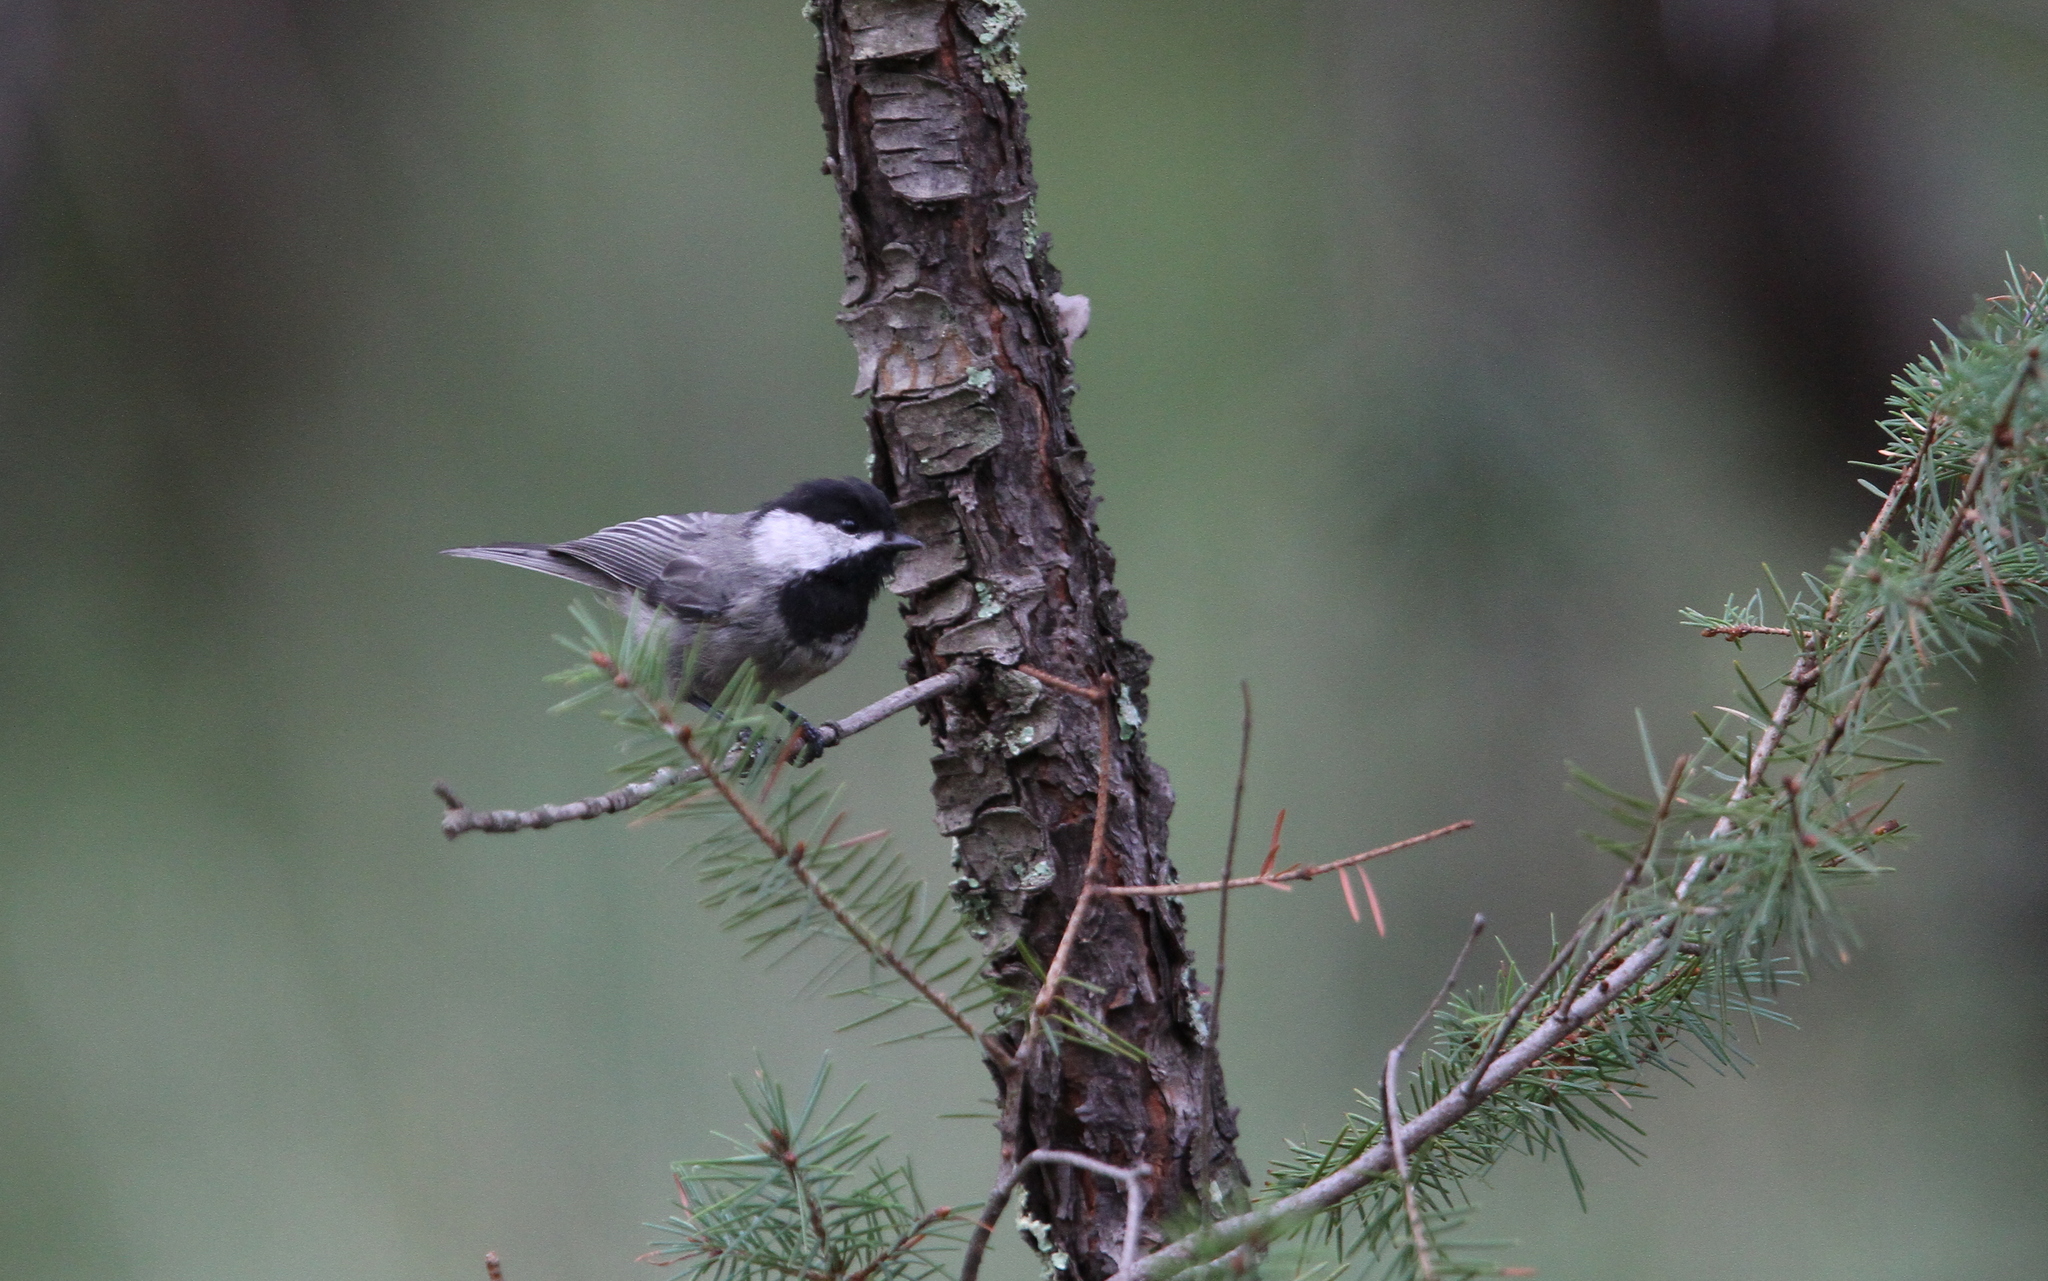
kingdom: Animalia
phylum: Chordata
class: Aves
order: Passeriformes
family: Paridae
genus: Poecile
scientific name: Poecile sclateri
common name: Mexican chickadee
